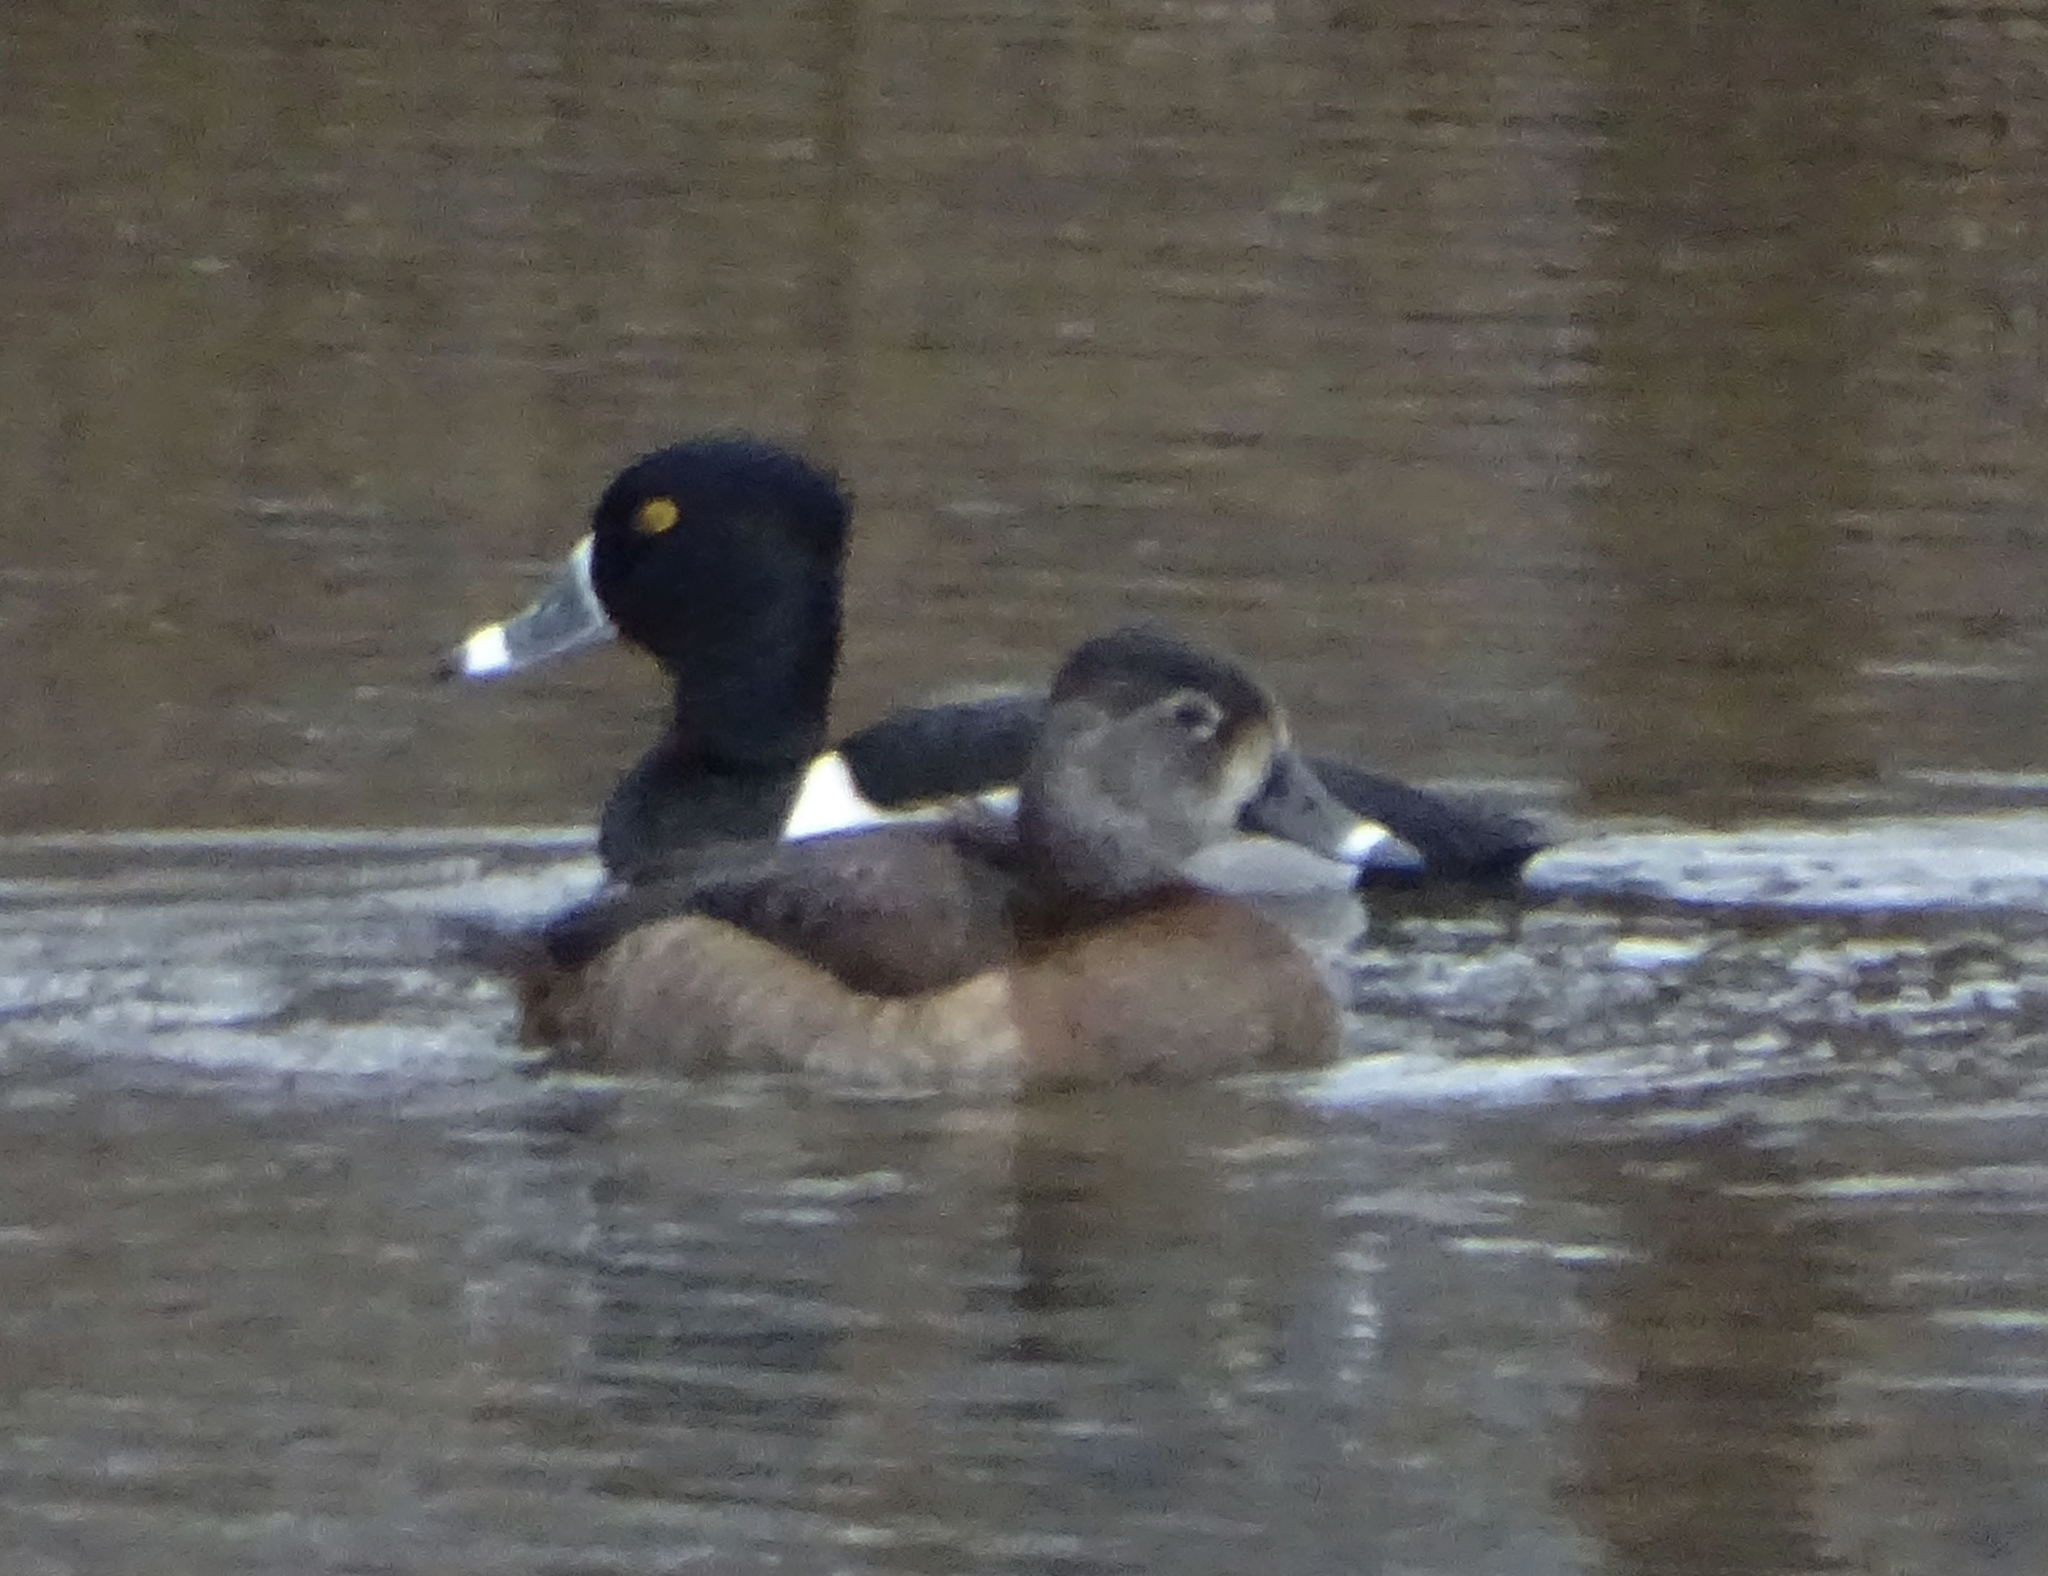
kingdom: Animalia
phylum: Chordata
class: Aves
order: Anseriformes
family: Anatidae
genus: Aythya
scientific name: Aythya collaris
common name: Ring-necked duck
